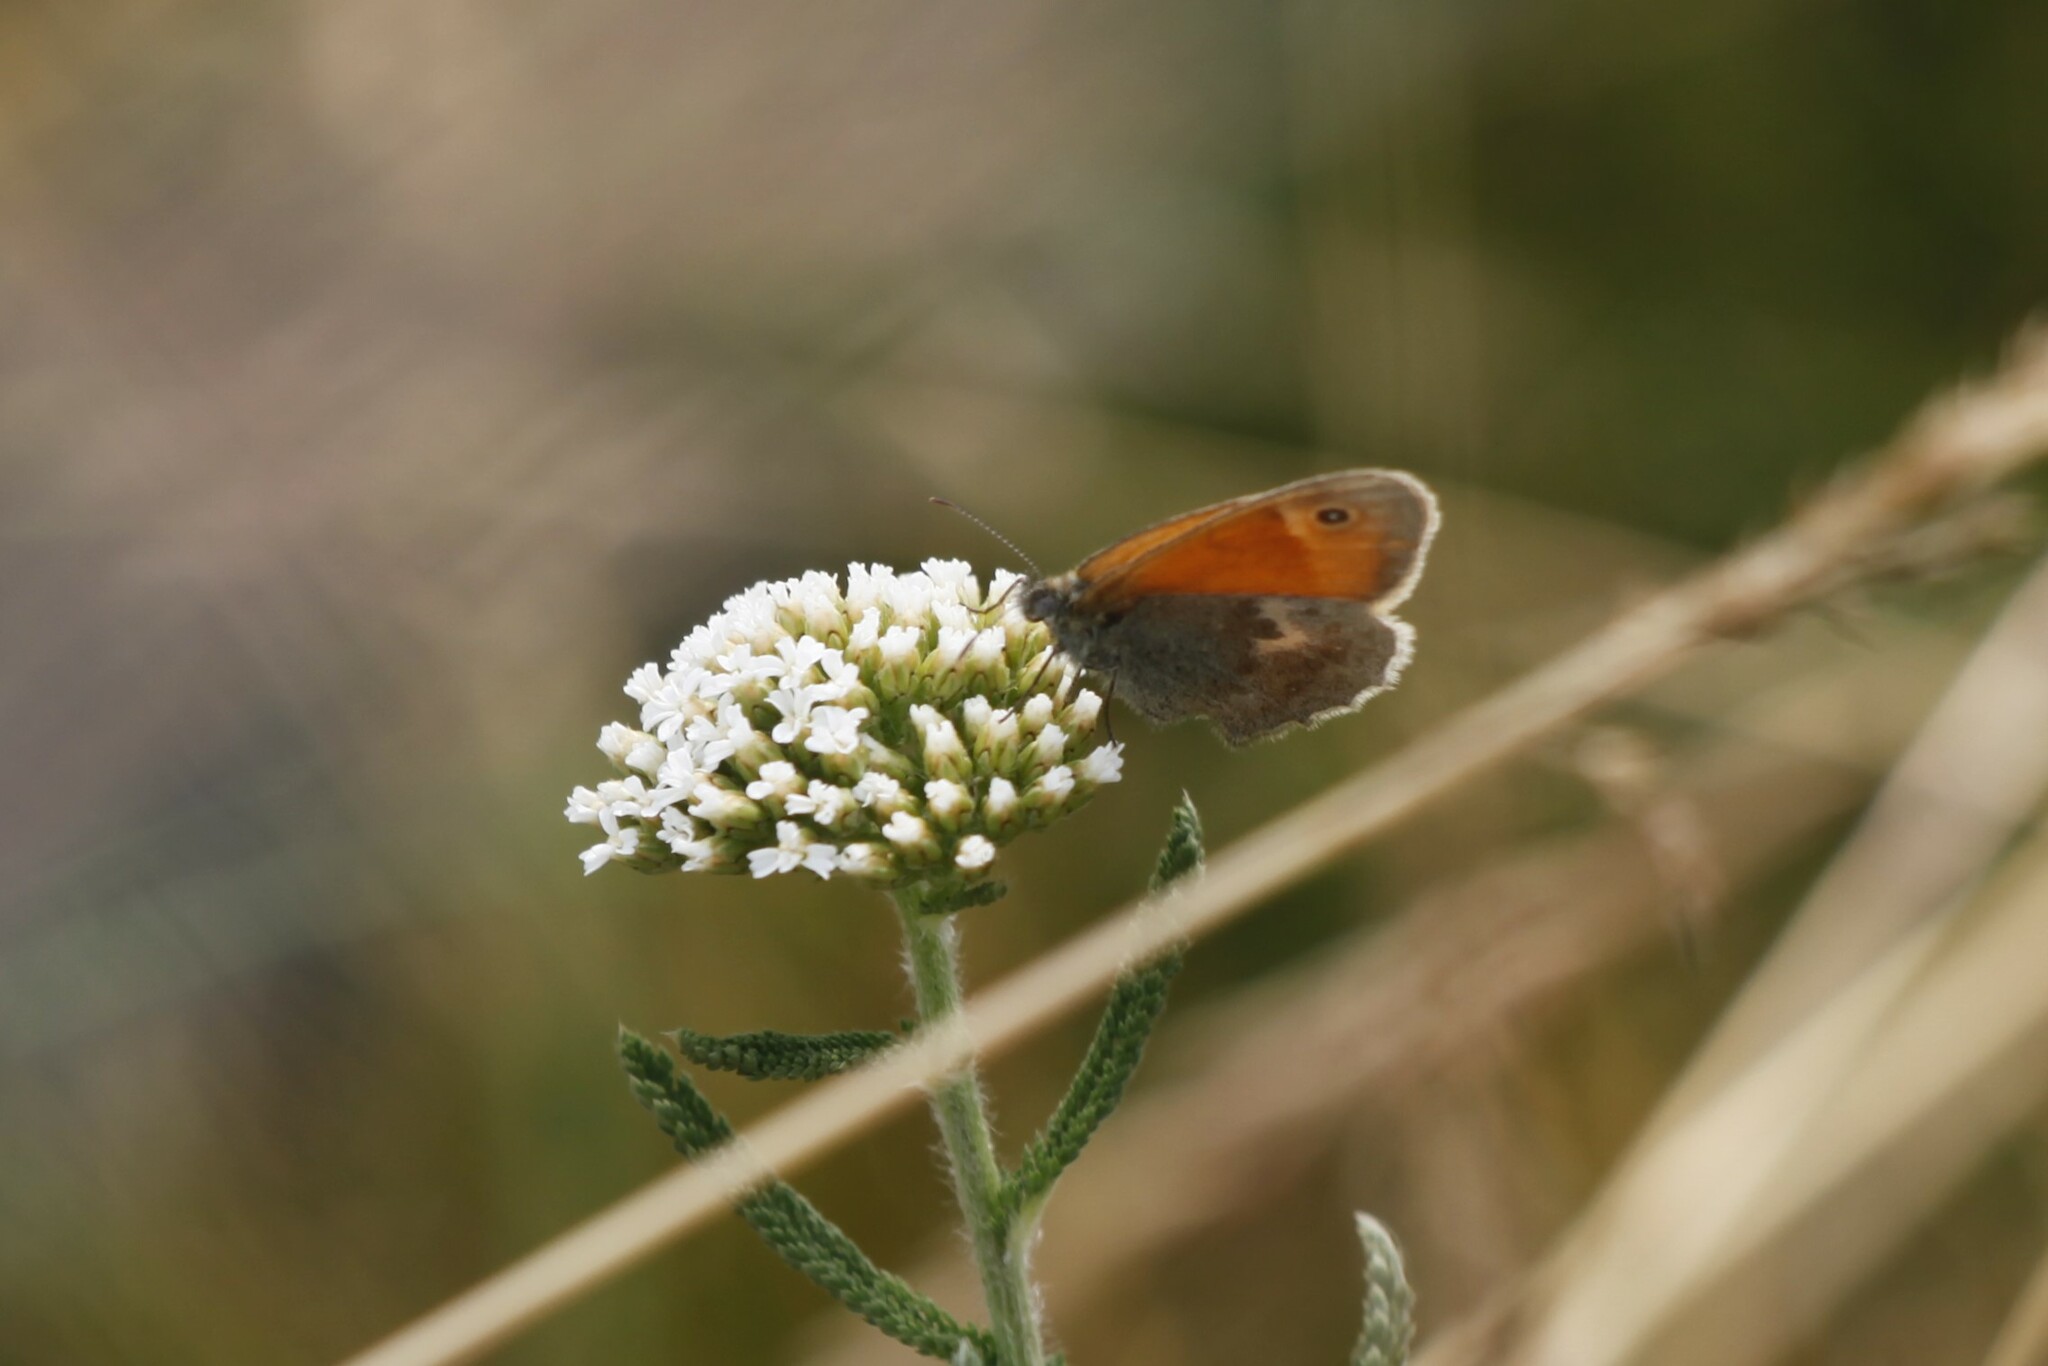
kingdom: Animalia
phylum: Arthropoda
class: Insecta
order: Lepidoptera
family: Nymphalidae
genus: Coenonympha
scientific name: Coenonympha pamphilus
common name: Small heath
